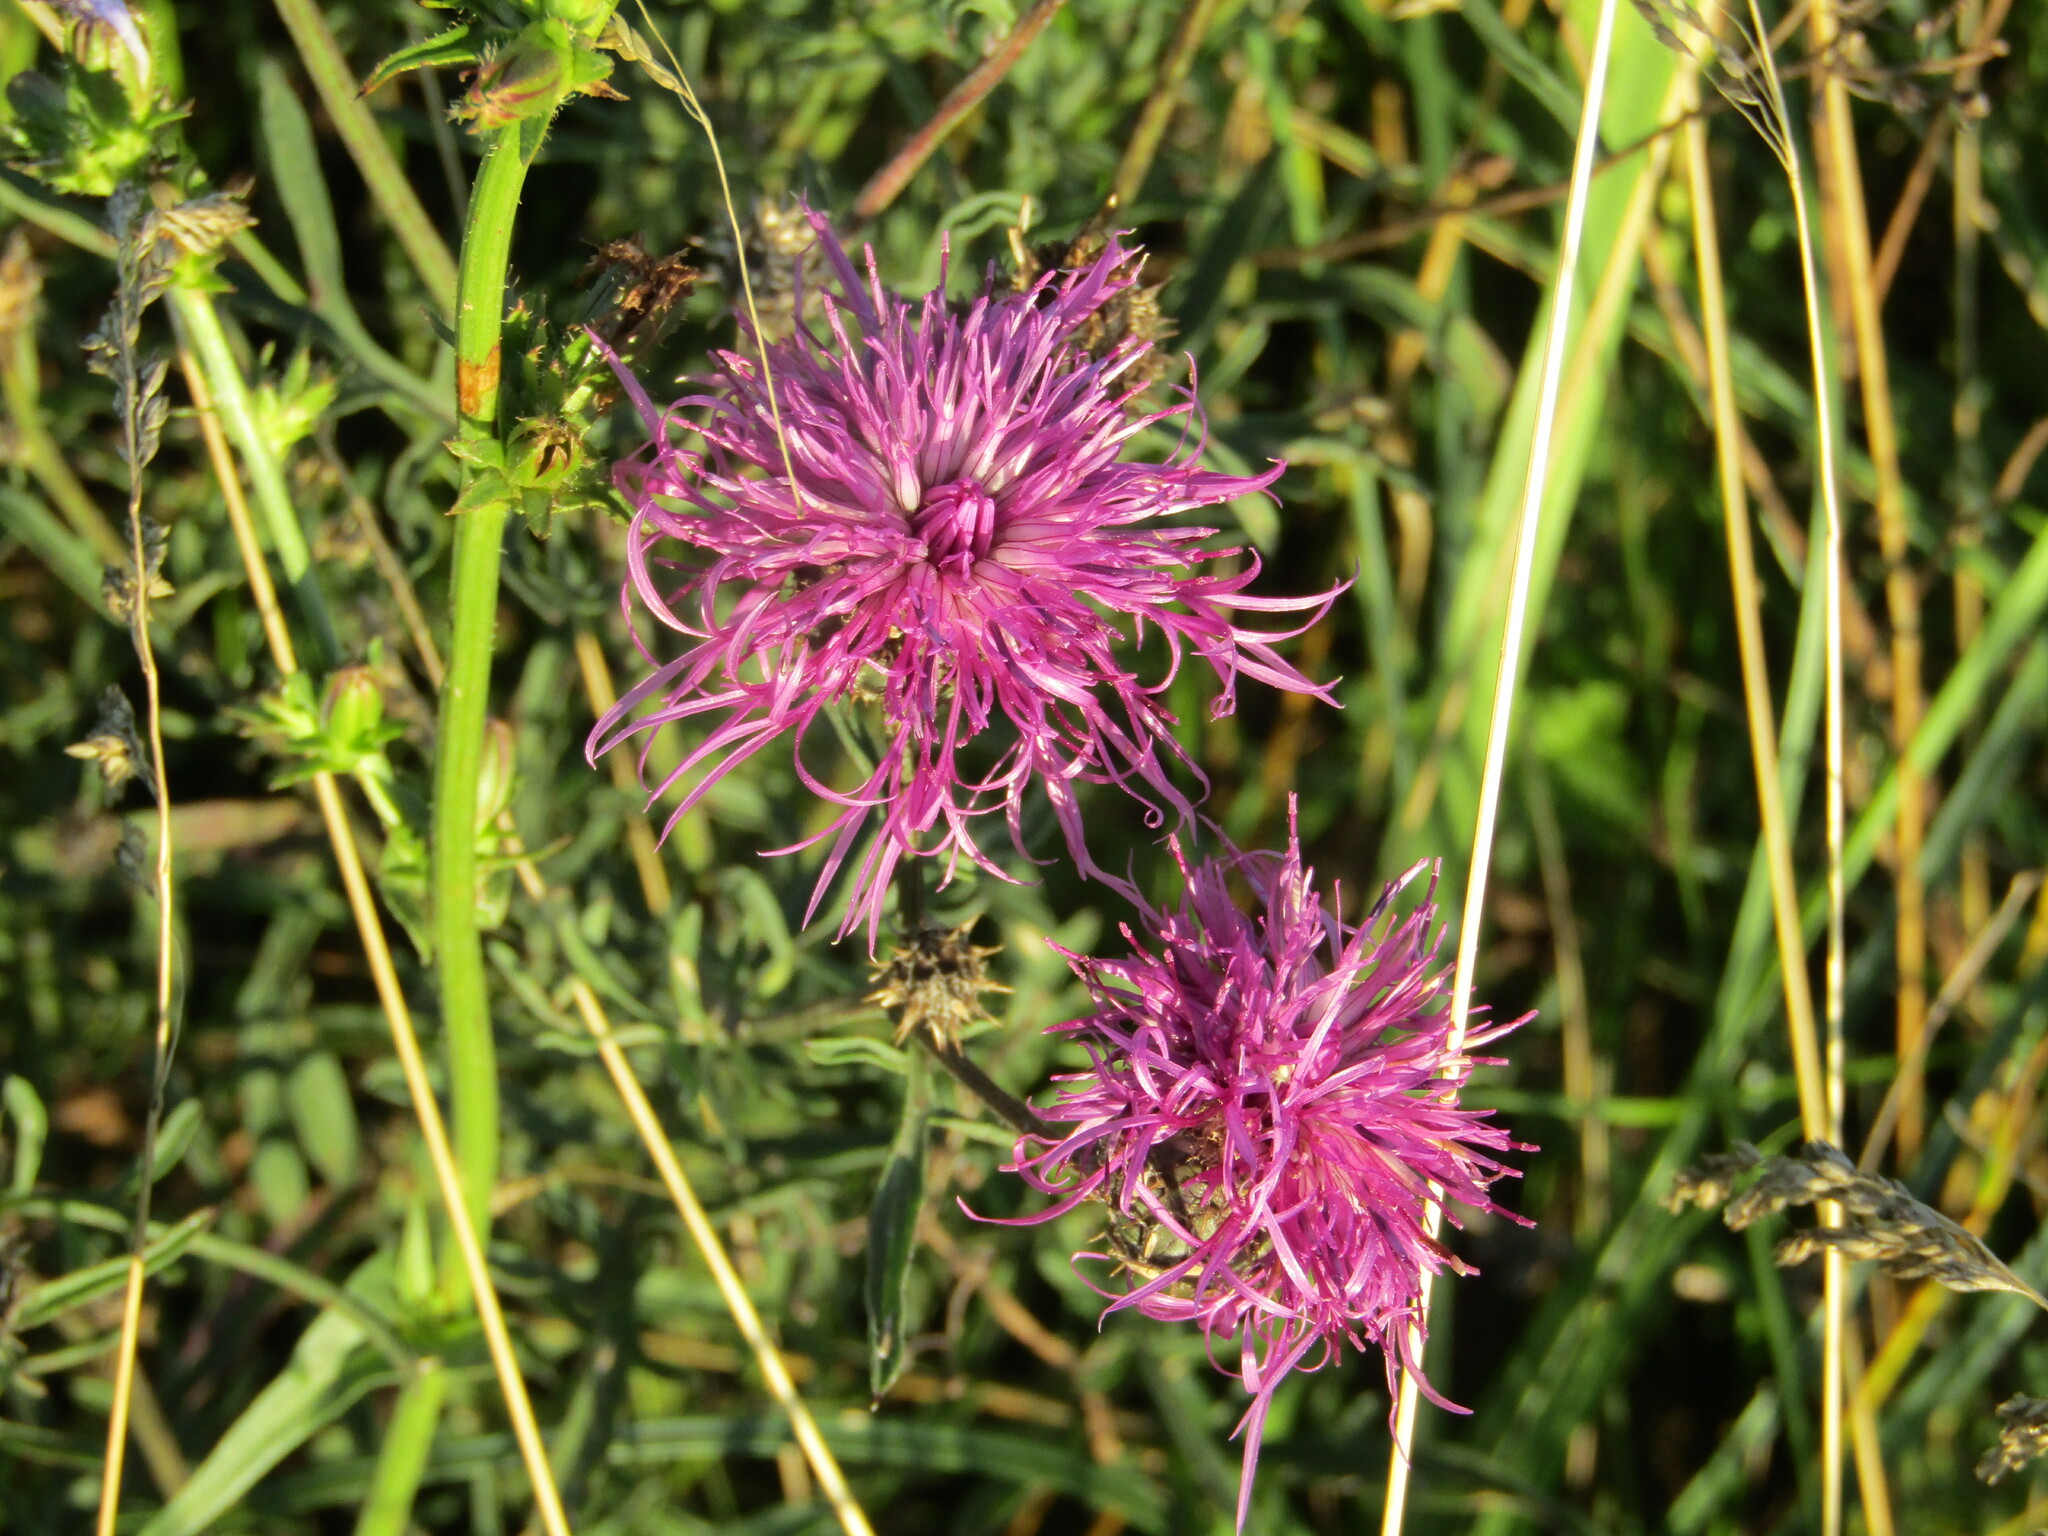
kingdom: Plantae
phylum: Tracheophyta
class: Magnoliopsida
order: Asterales
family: Asteraceae
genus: Centaurea
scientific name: Centaurea scabiosa
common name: Greater knapweed
